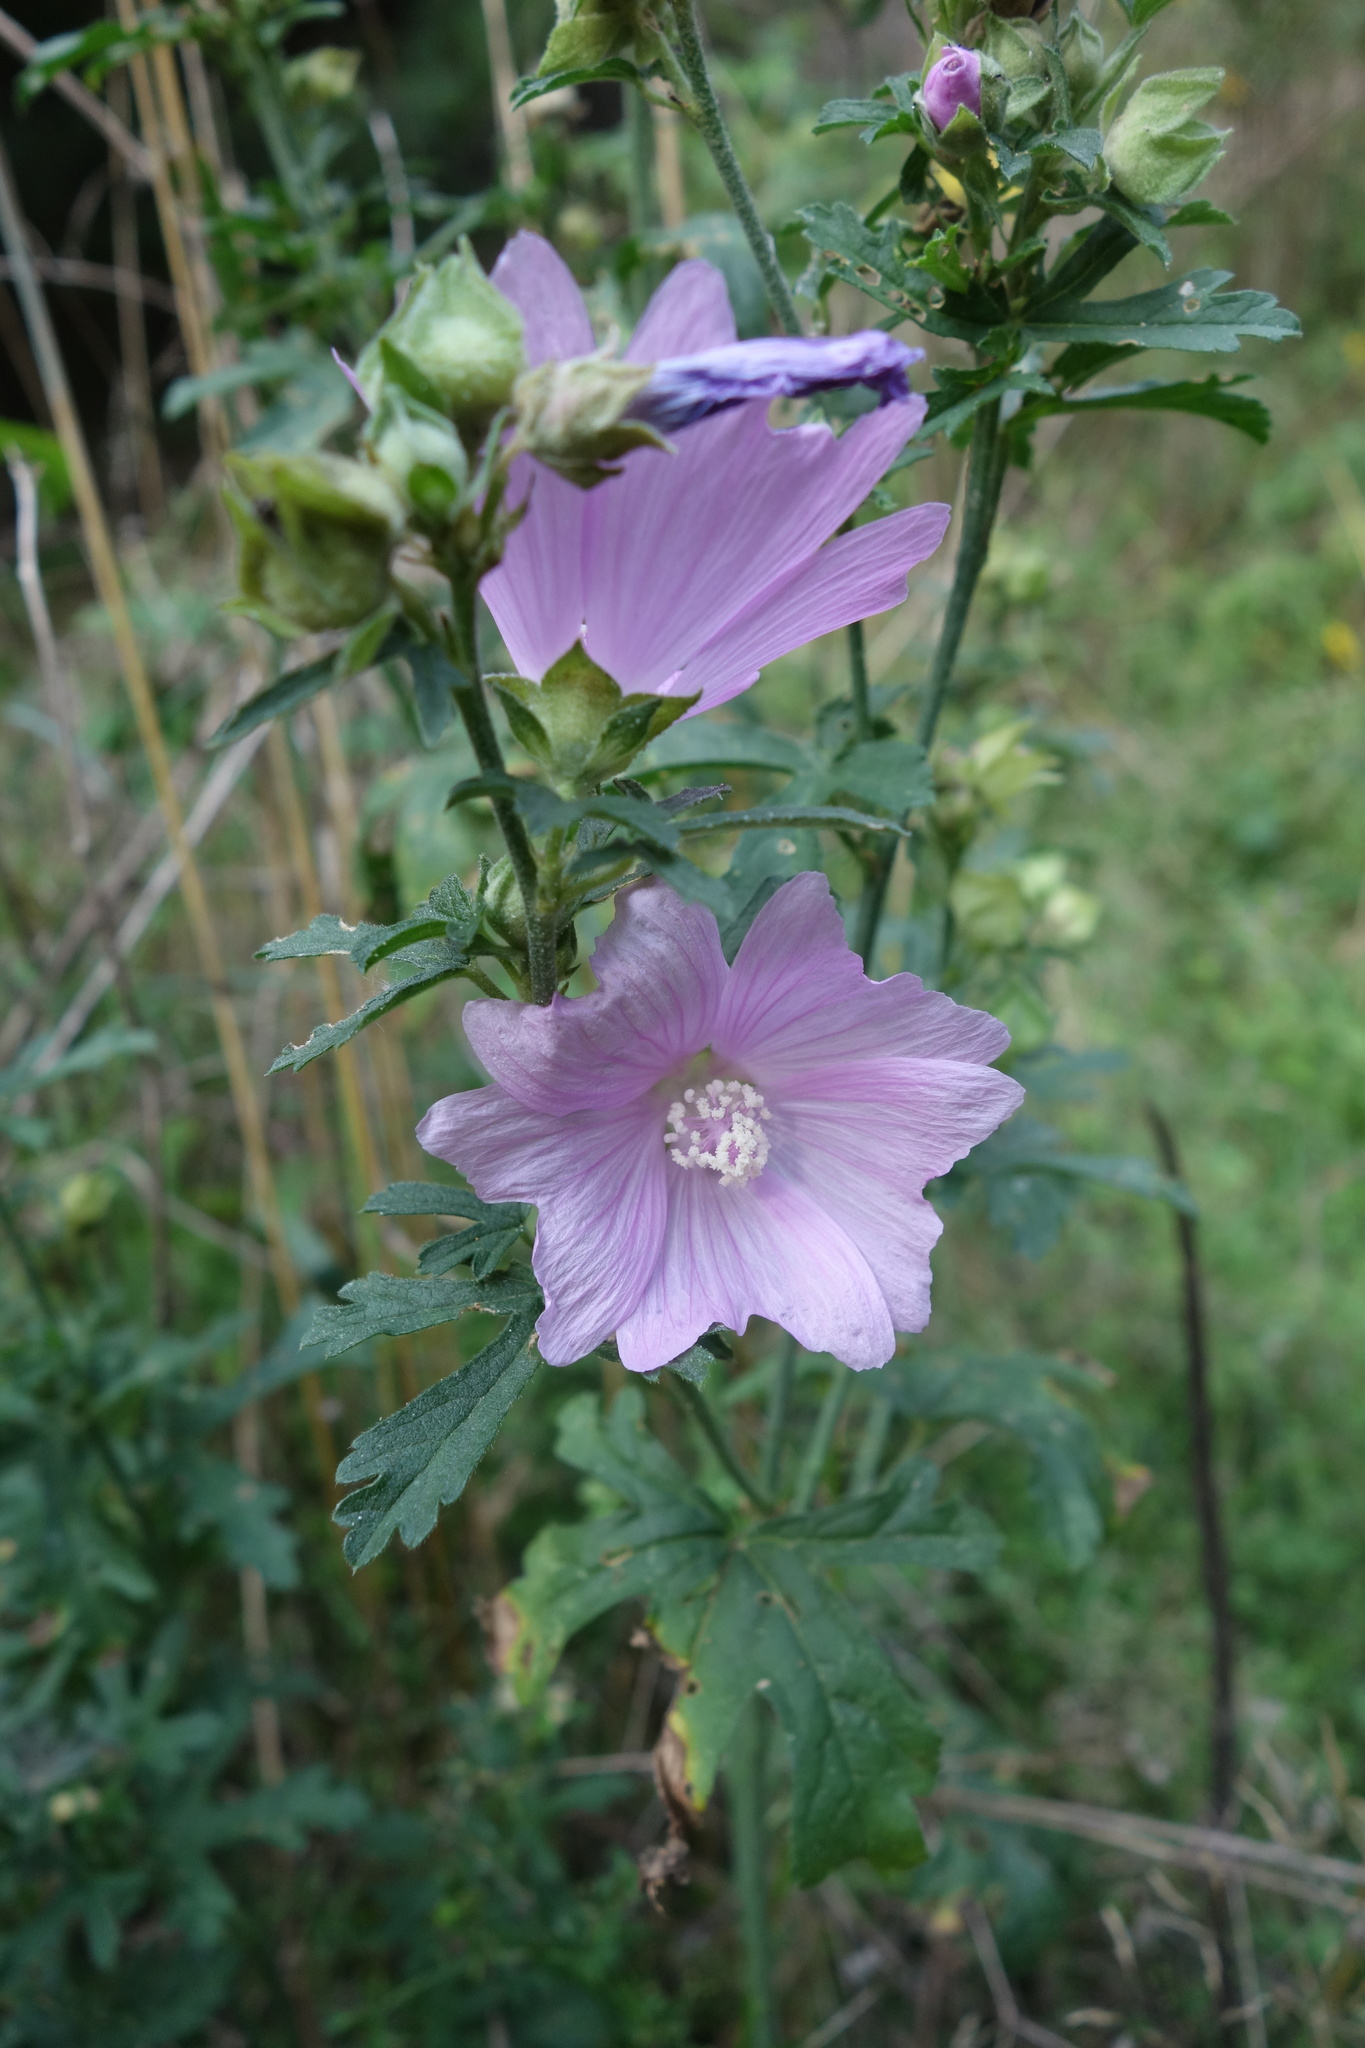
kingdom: Plantae
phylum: Tracheophyta
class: Magnoliopsida
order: Malvales
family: Malvaceae
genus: Malva
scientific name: Malva alcea
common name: Greater musk-mallow
